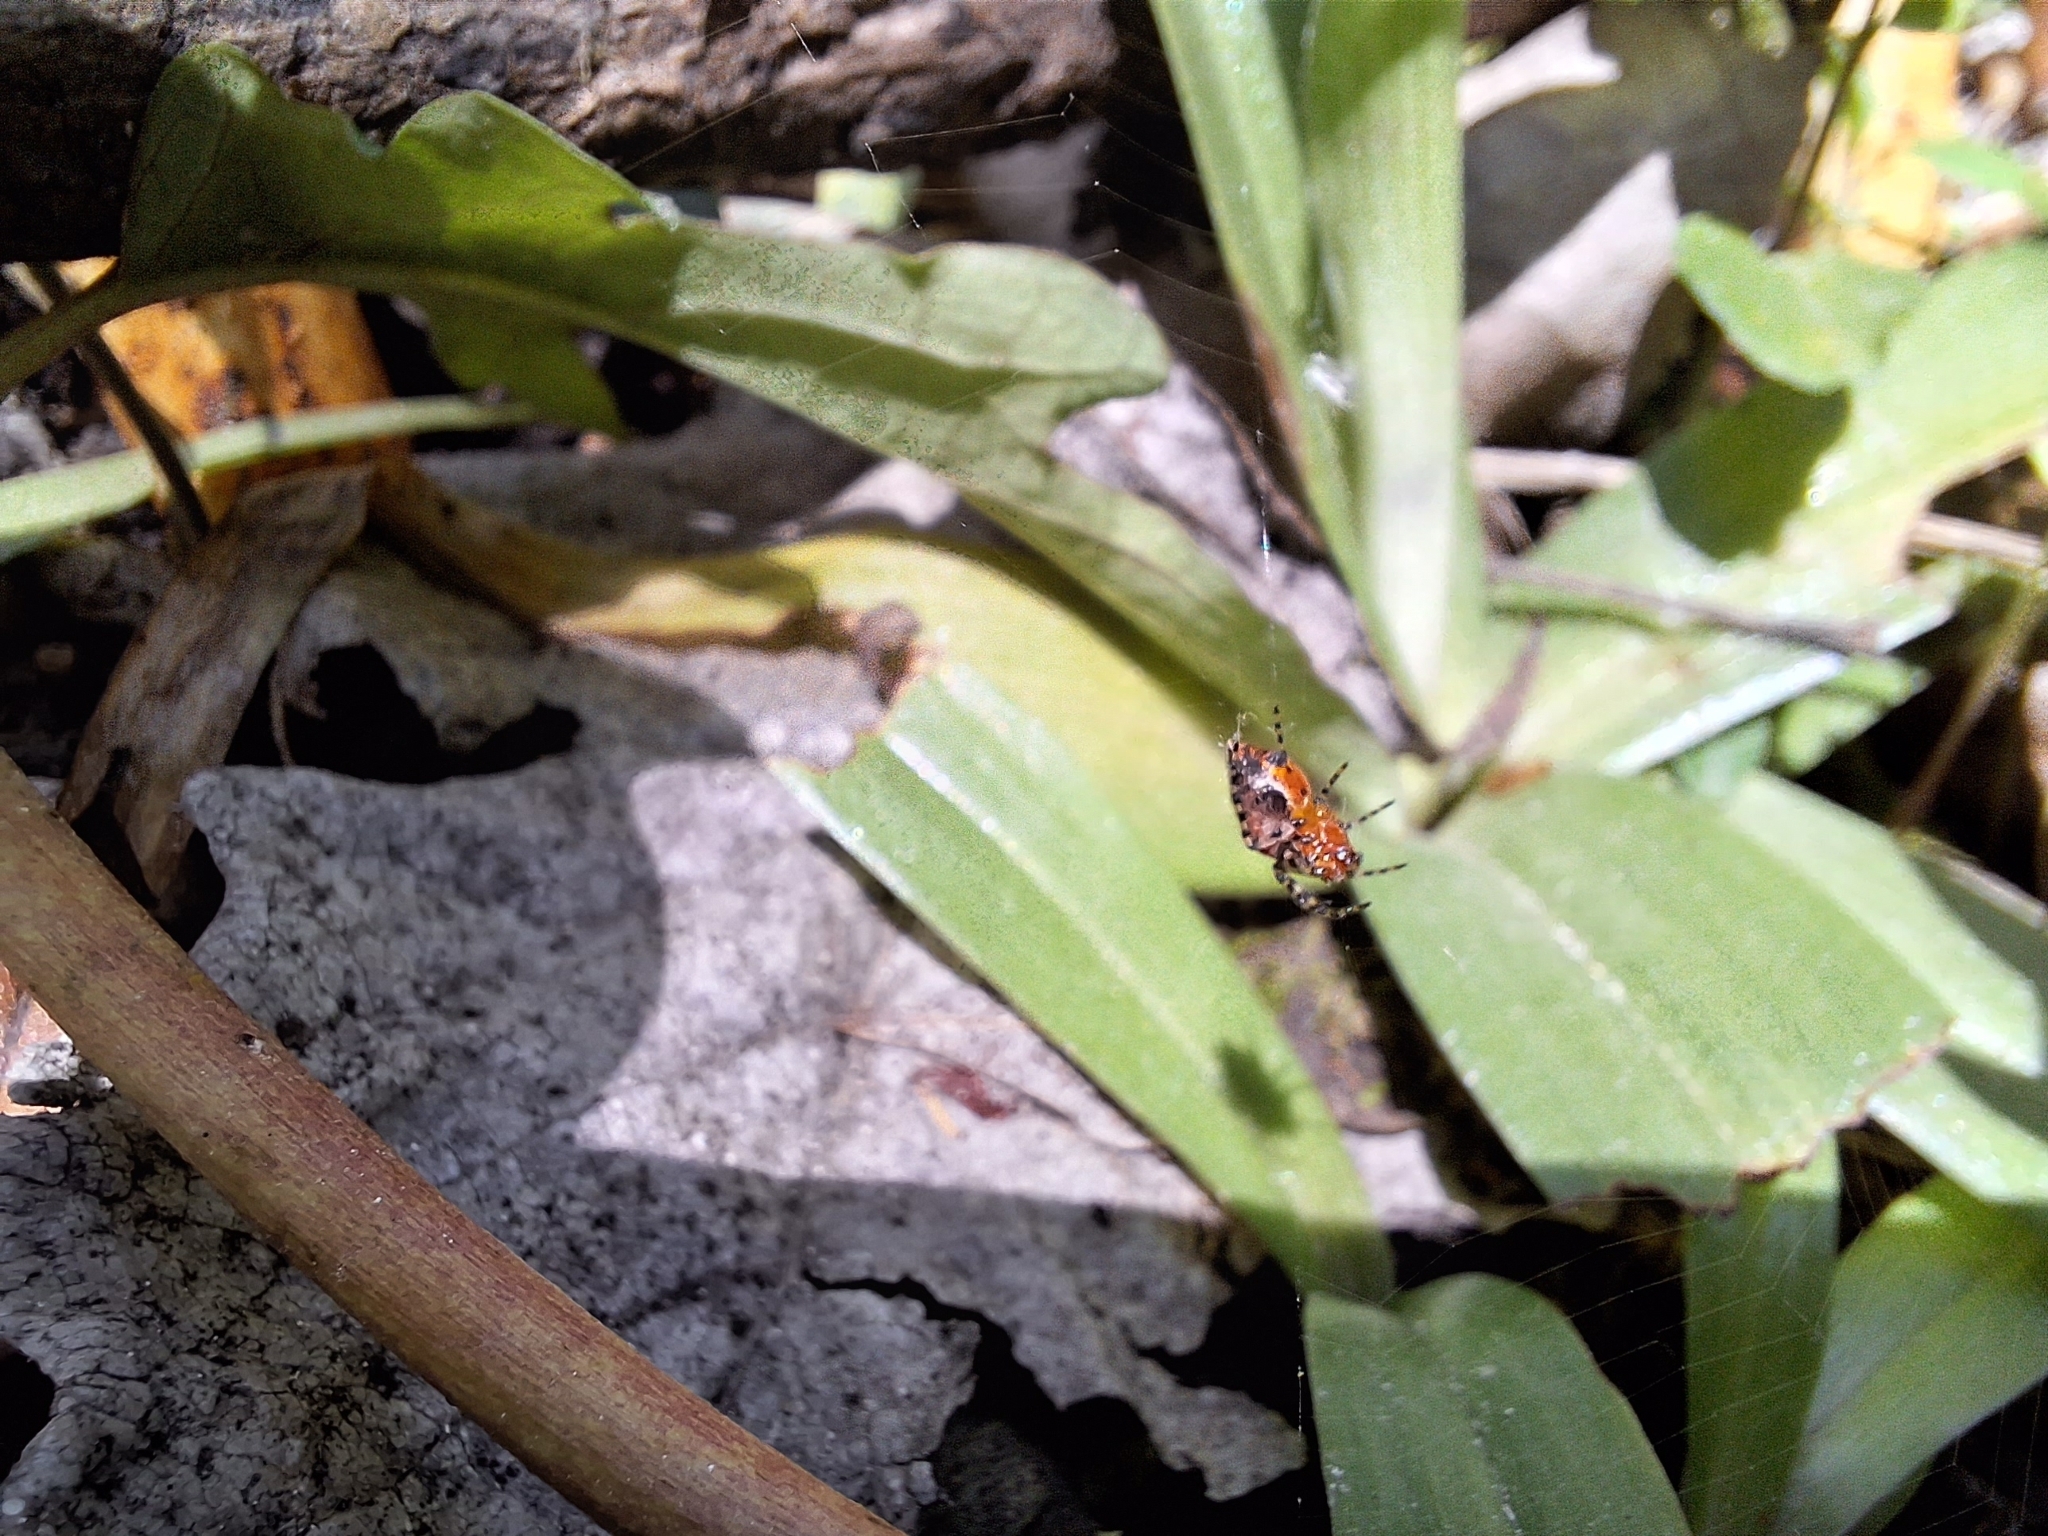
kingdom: Animalia
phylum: Arthropoda
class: Arachnida
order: Araneae
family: Araneidae
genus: Alpaida
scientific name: Alpaida gallardoi
